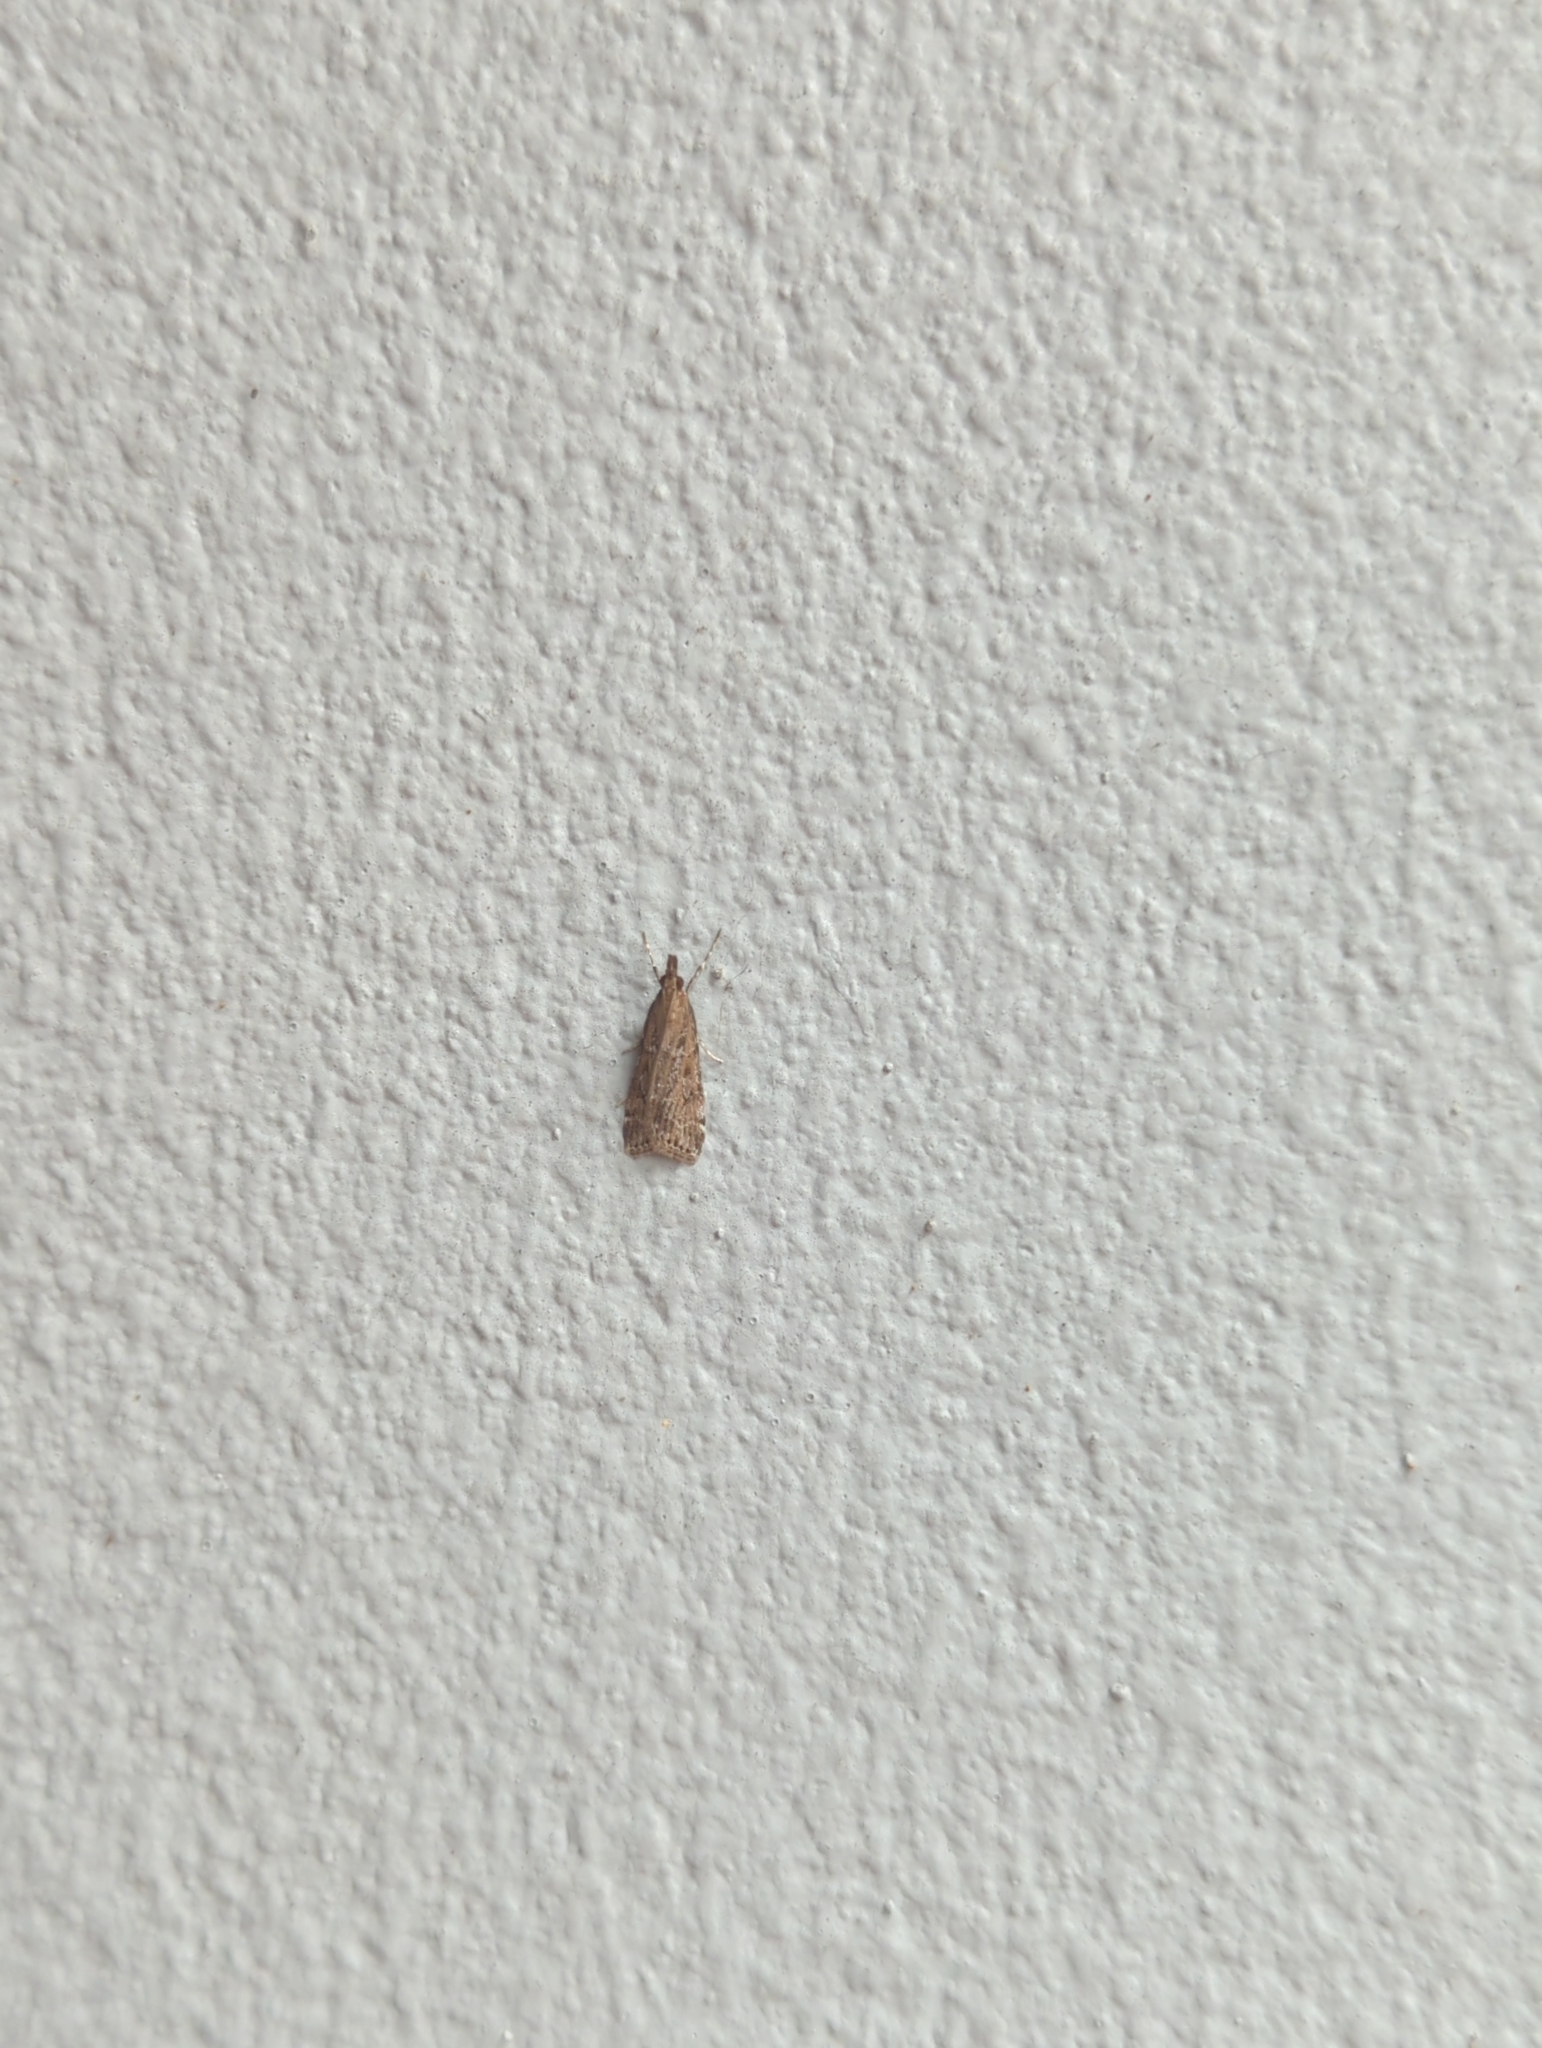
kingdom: Animalia
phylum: Arthropoda
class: Insecta
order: Lepidoptera
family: Crambidae
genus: Eudonia
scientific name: Eudonia cleodoralis
